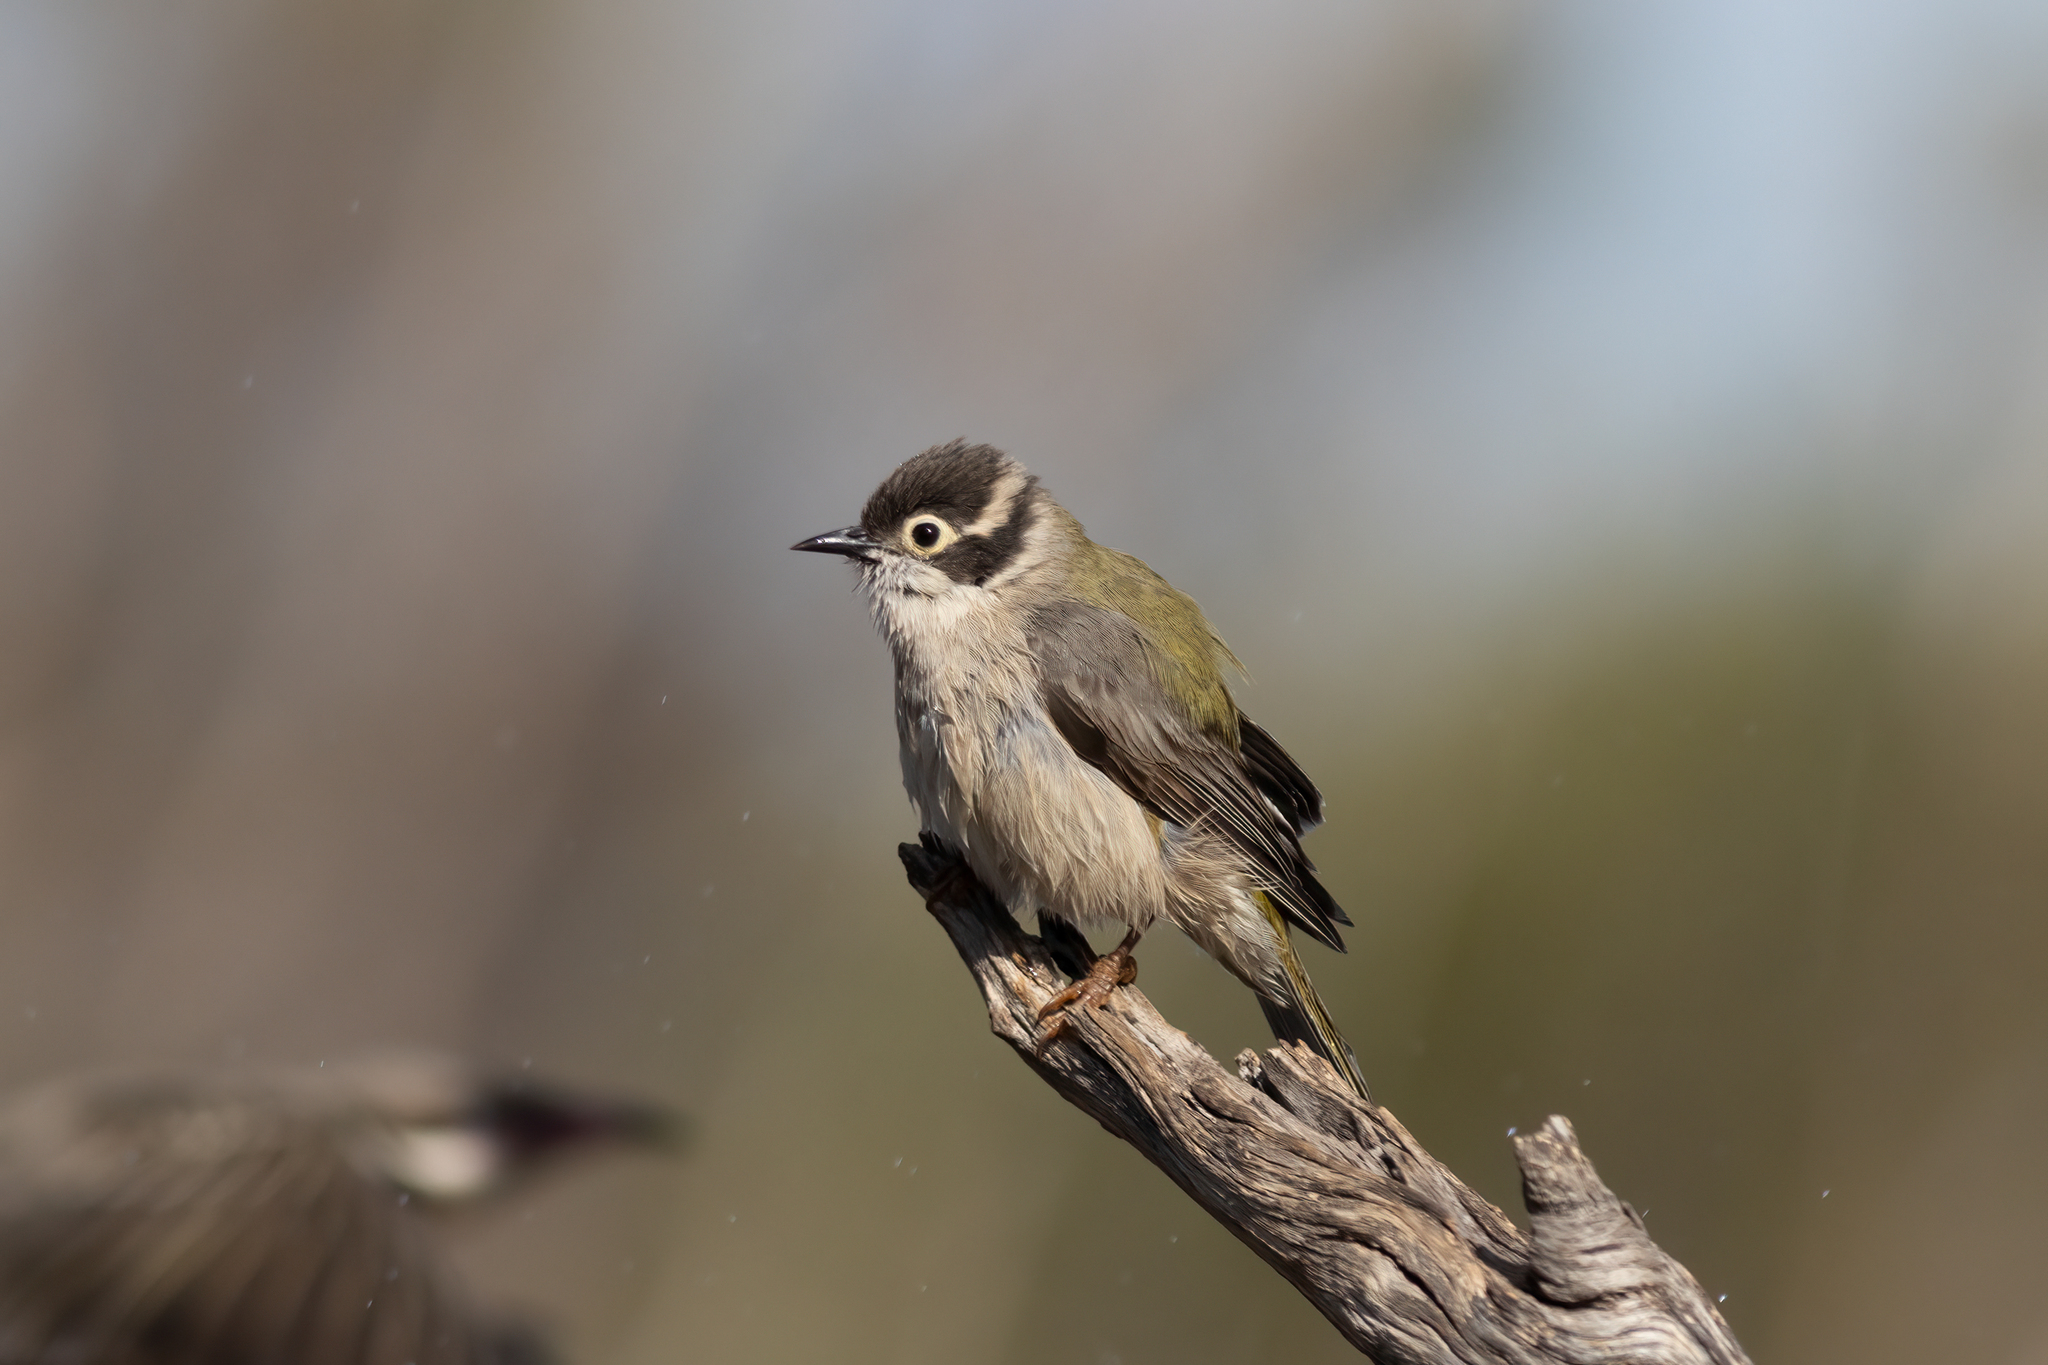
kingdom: Animalia
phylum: Chordata
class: Aves
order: Passeriformes
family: Meliphagidae
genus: Melithreptus
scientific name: Melithreptus brevirostris
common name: Brown-headed honeyeater
